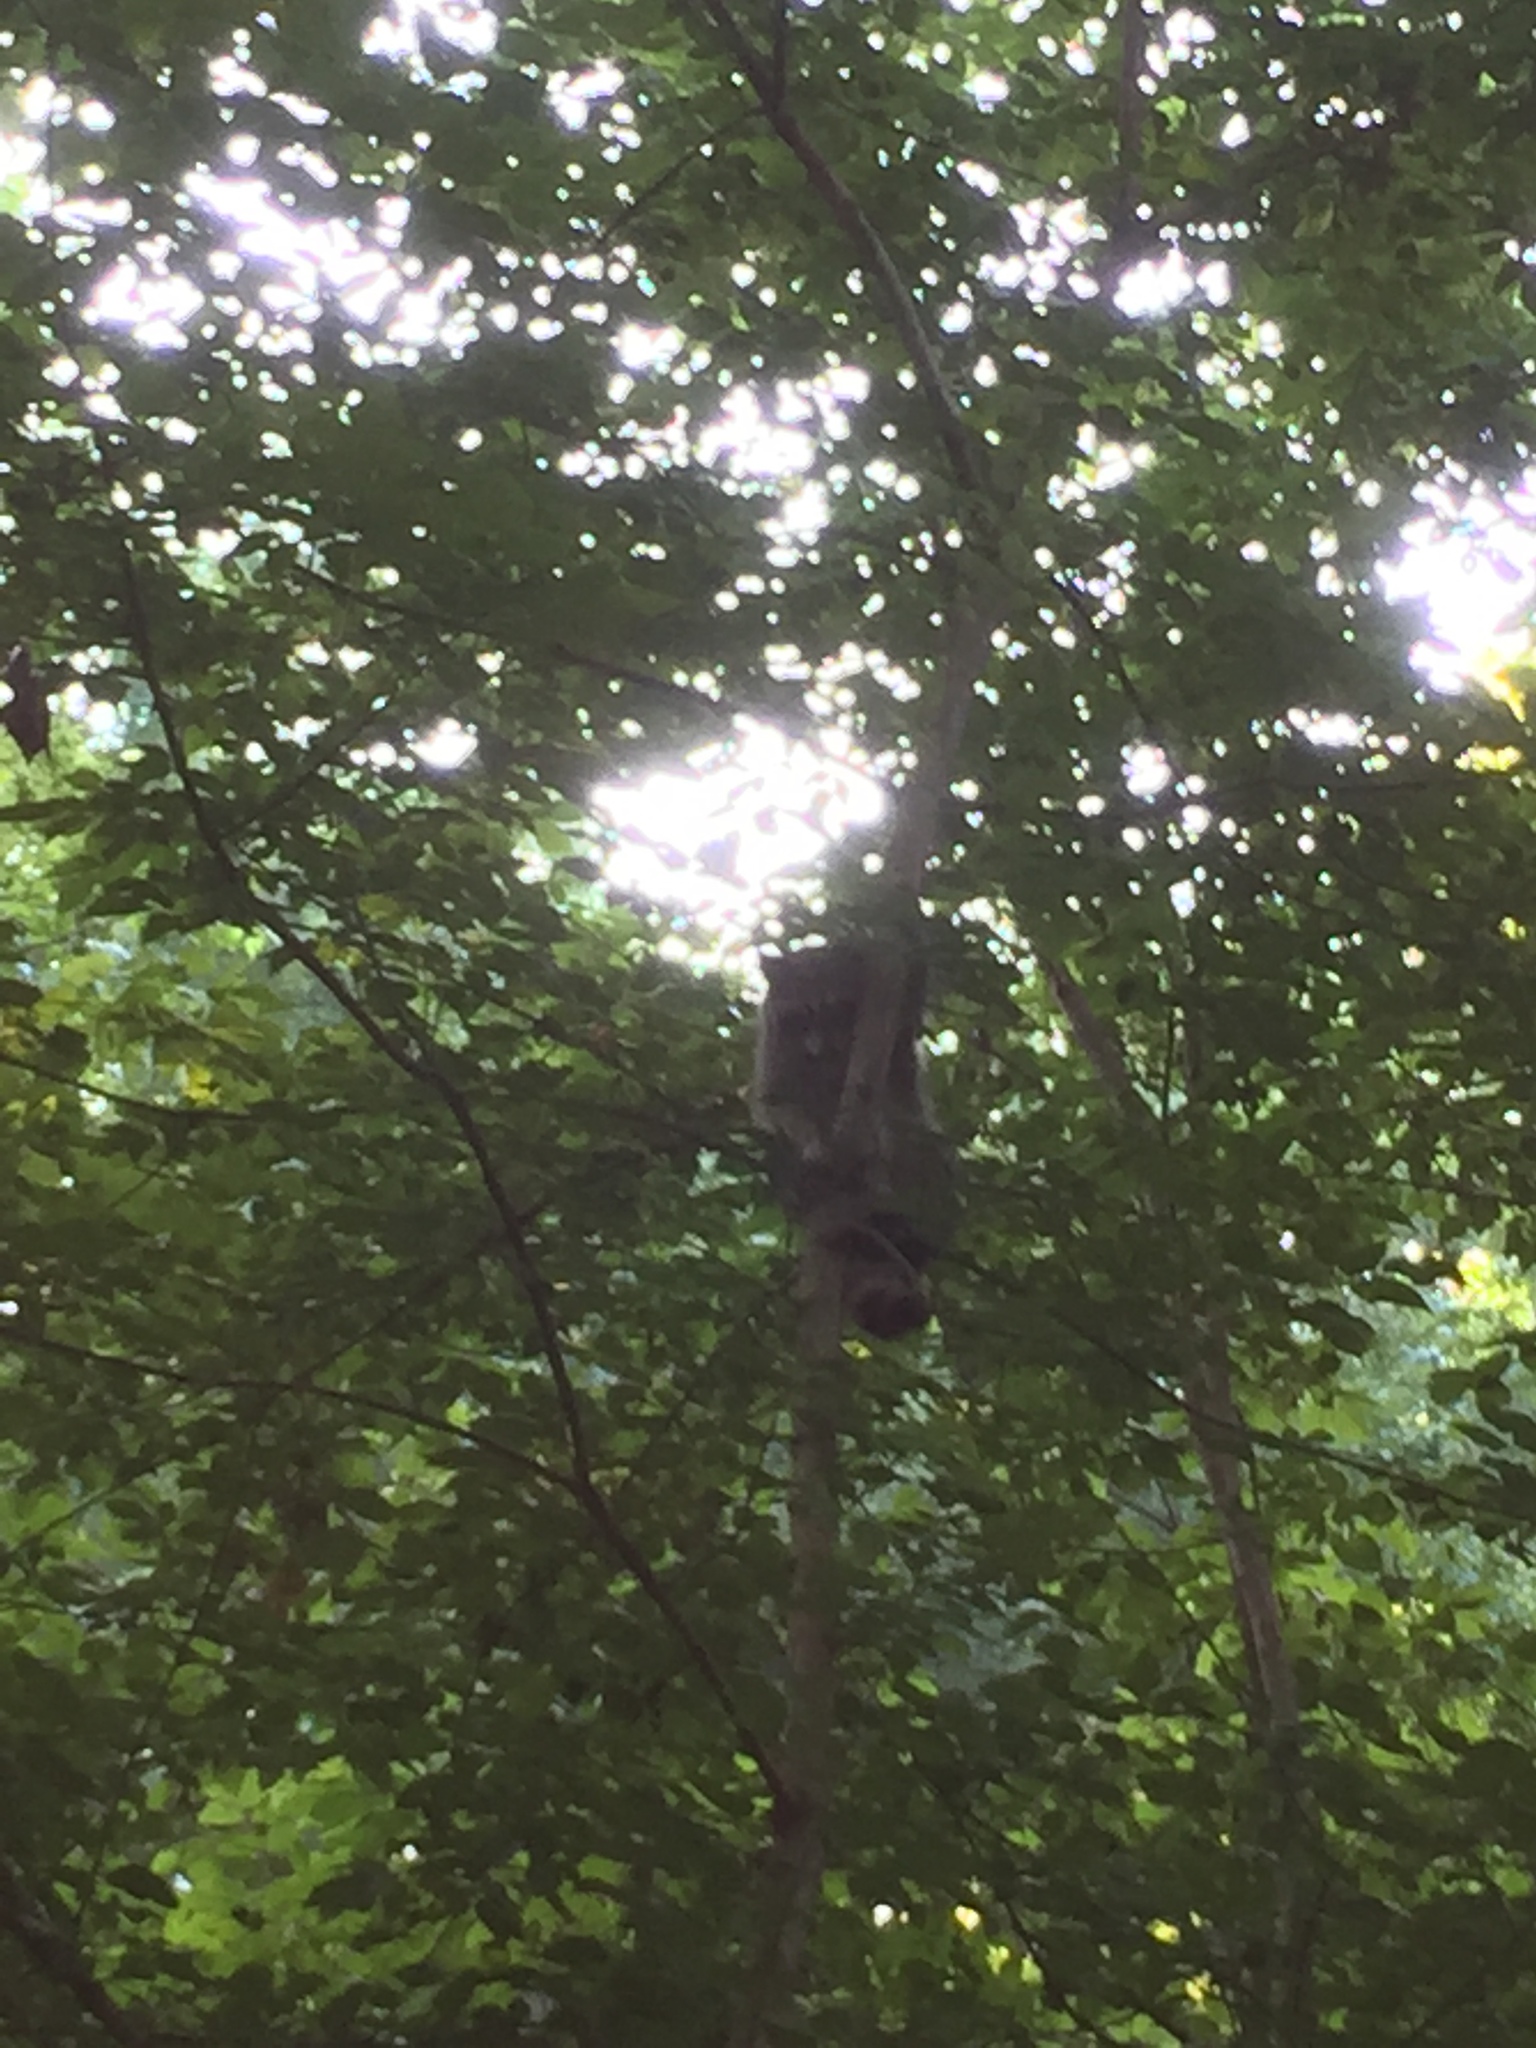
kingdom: Animalia
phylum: Chordata
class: Mammalia
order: Carnivora
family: Procyonidae
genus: Procyon
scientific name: Procyon lotor
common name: Raccoon
